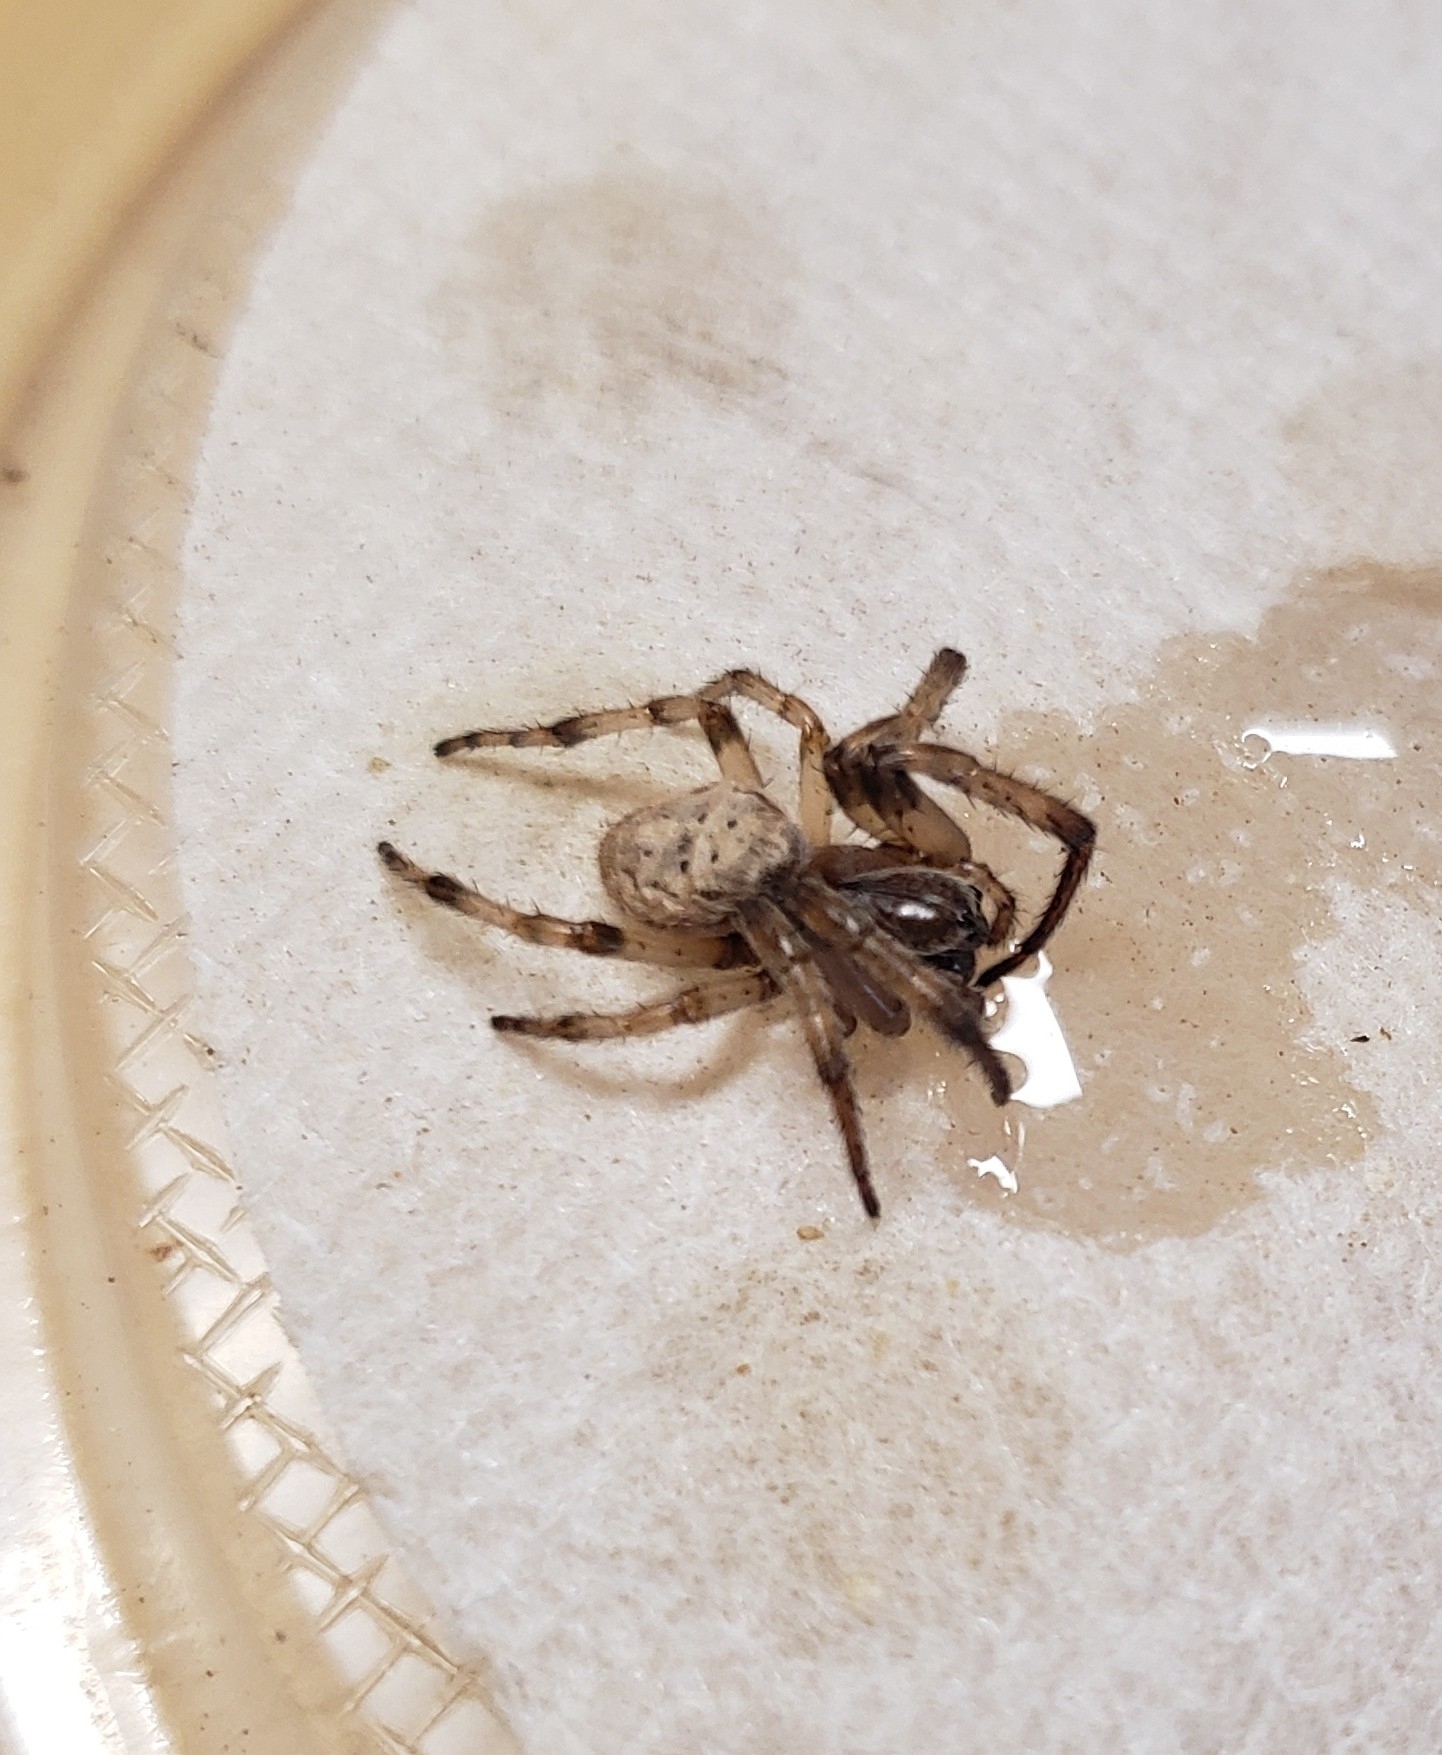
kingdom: Animalia
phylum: Arthropoda
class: Arachnida
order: Araneae
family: Araneidae
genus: Larinioides
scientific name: Larinioides cornutus
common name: Furrow orbweaver
